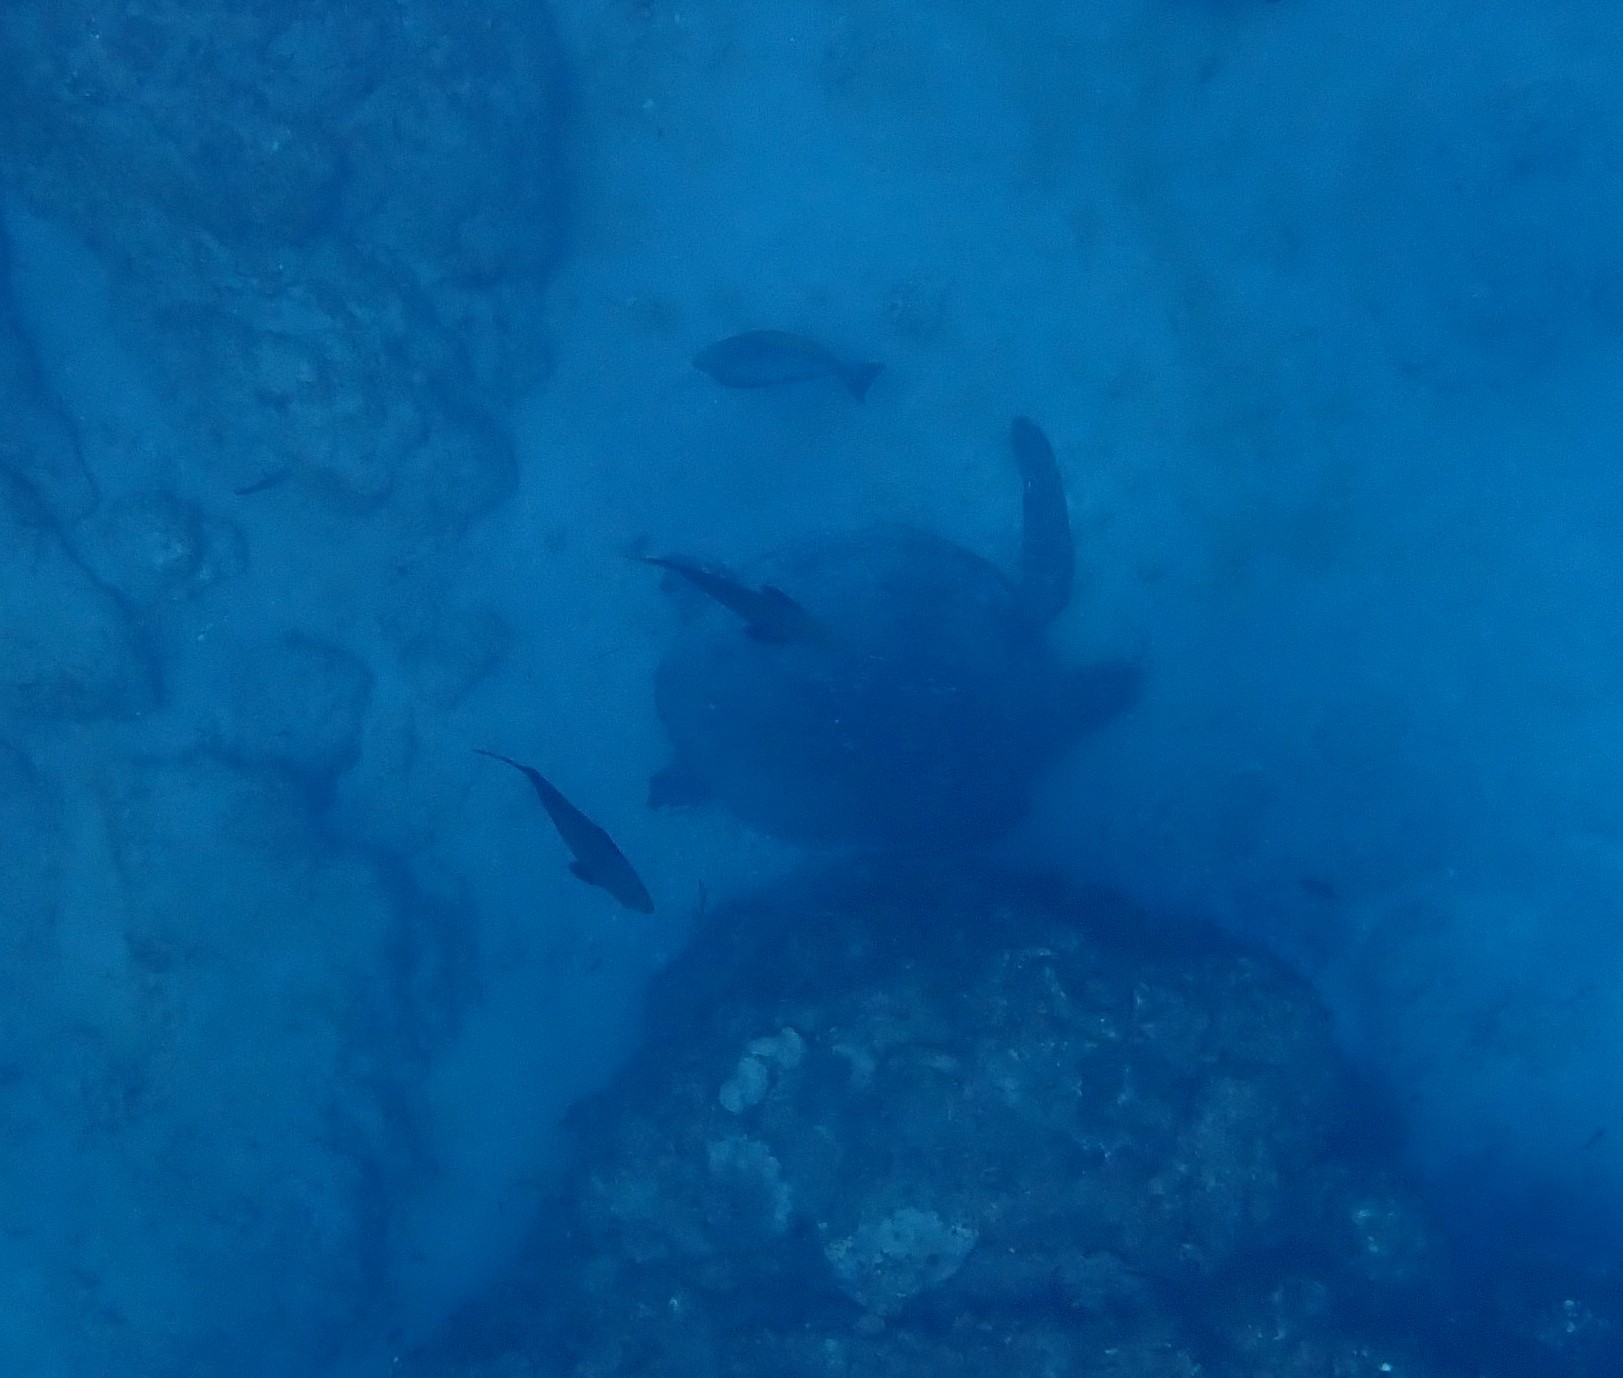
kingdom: Animalia
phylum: Chordata
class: Testudines
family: Cheloniidae
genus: Chelonia
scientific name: Chelonia mydas
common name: Green turtle
